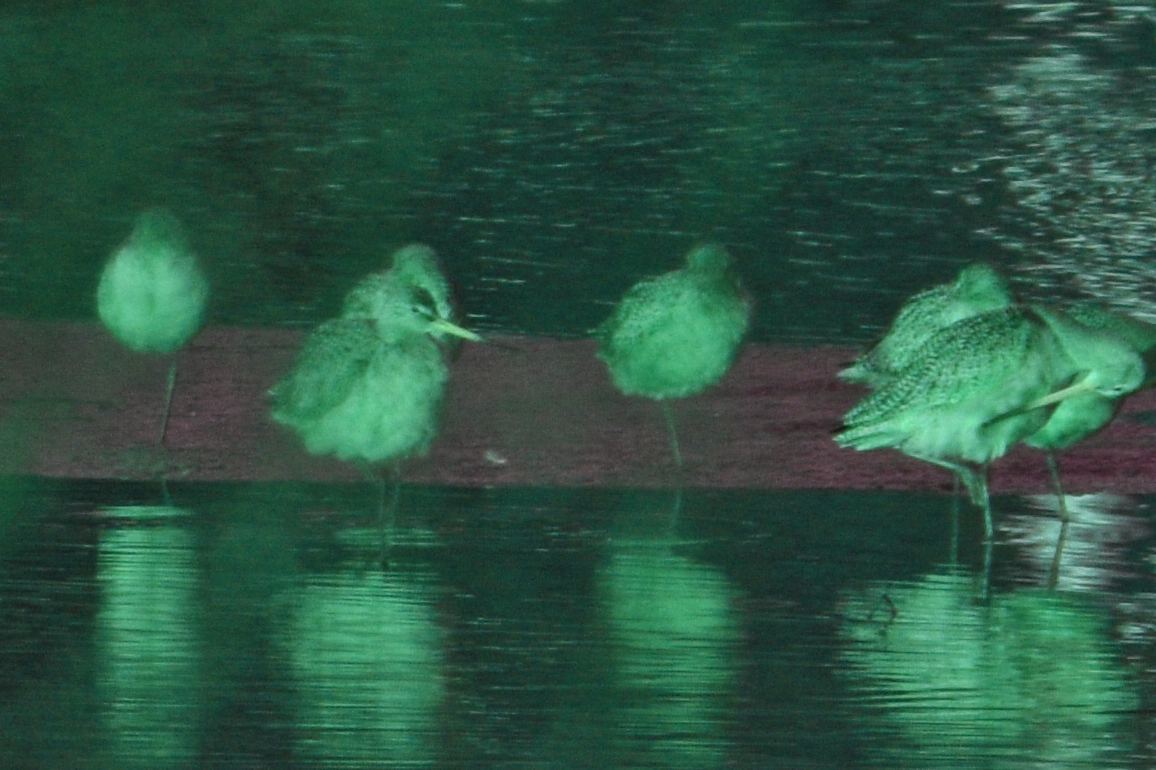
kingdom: Animalia
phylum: Chordata
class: Aves
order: Charadriiformes
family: Scolopacidae
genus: Limosa
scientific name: Limosa fedoa
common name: Marbled godwit
